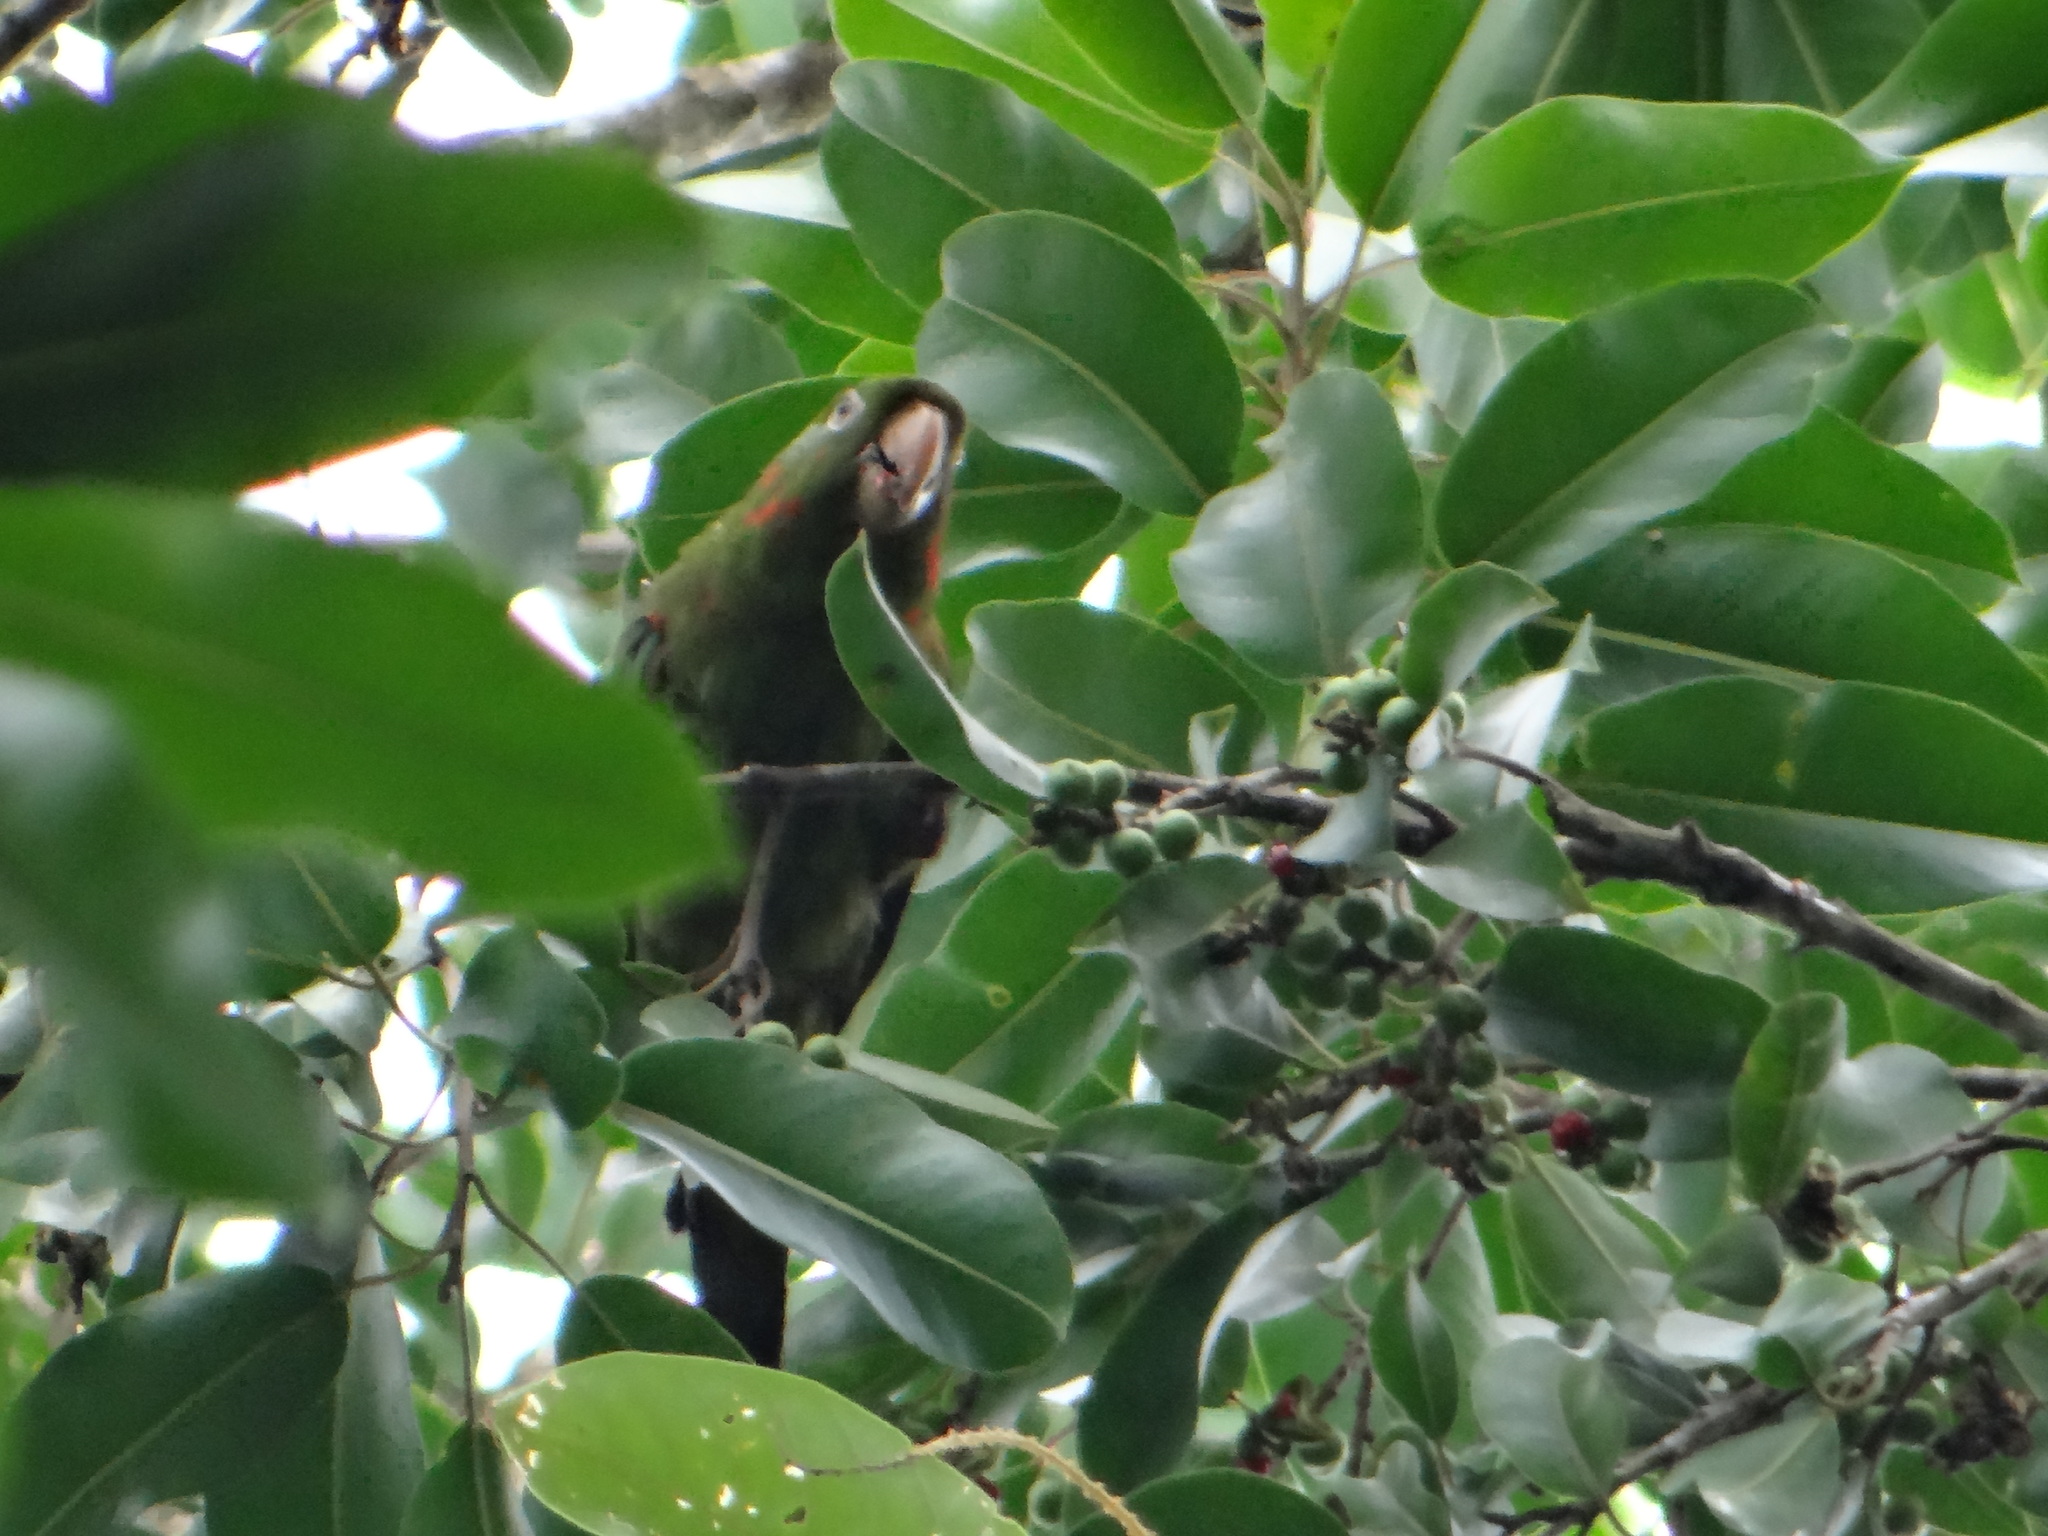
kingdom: Animalia
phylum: Chordata
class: Aves
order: Psittaciformes
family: Psittacidae
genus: Aratinga
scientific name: Aratinga leucophthalma
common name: White-eyed parakeet
